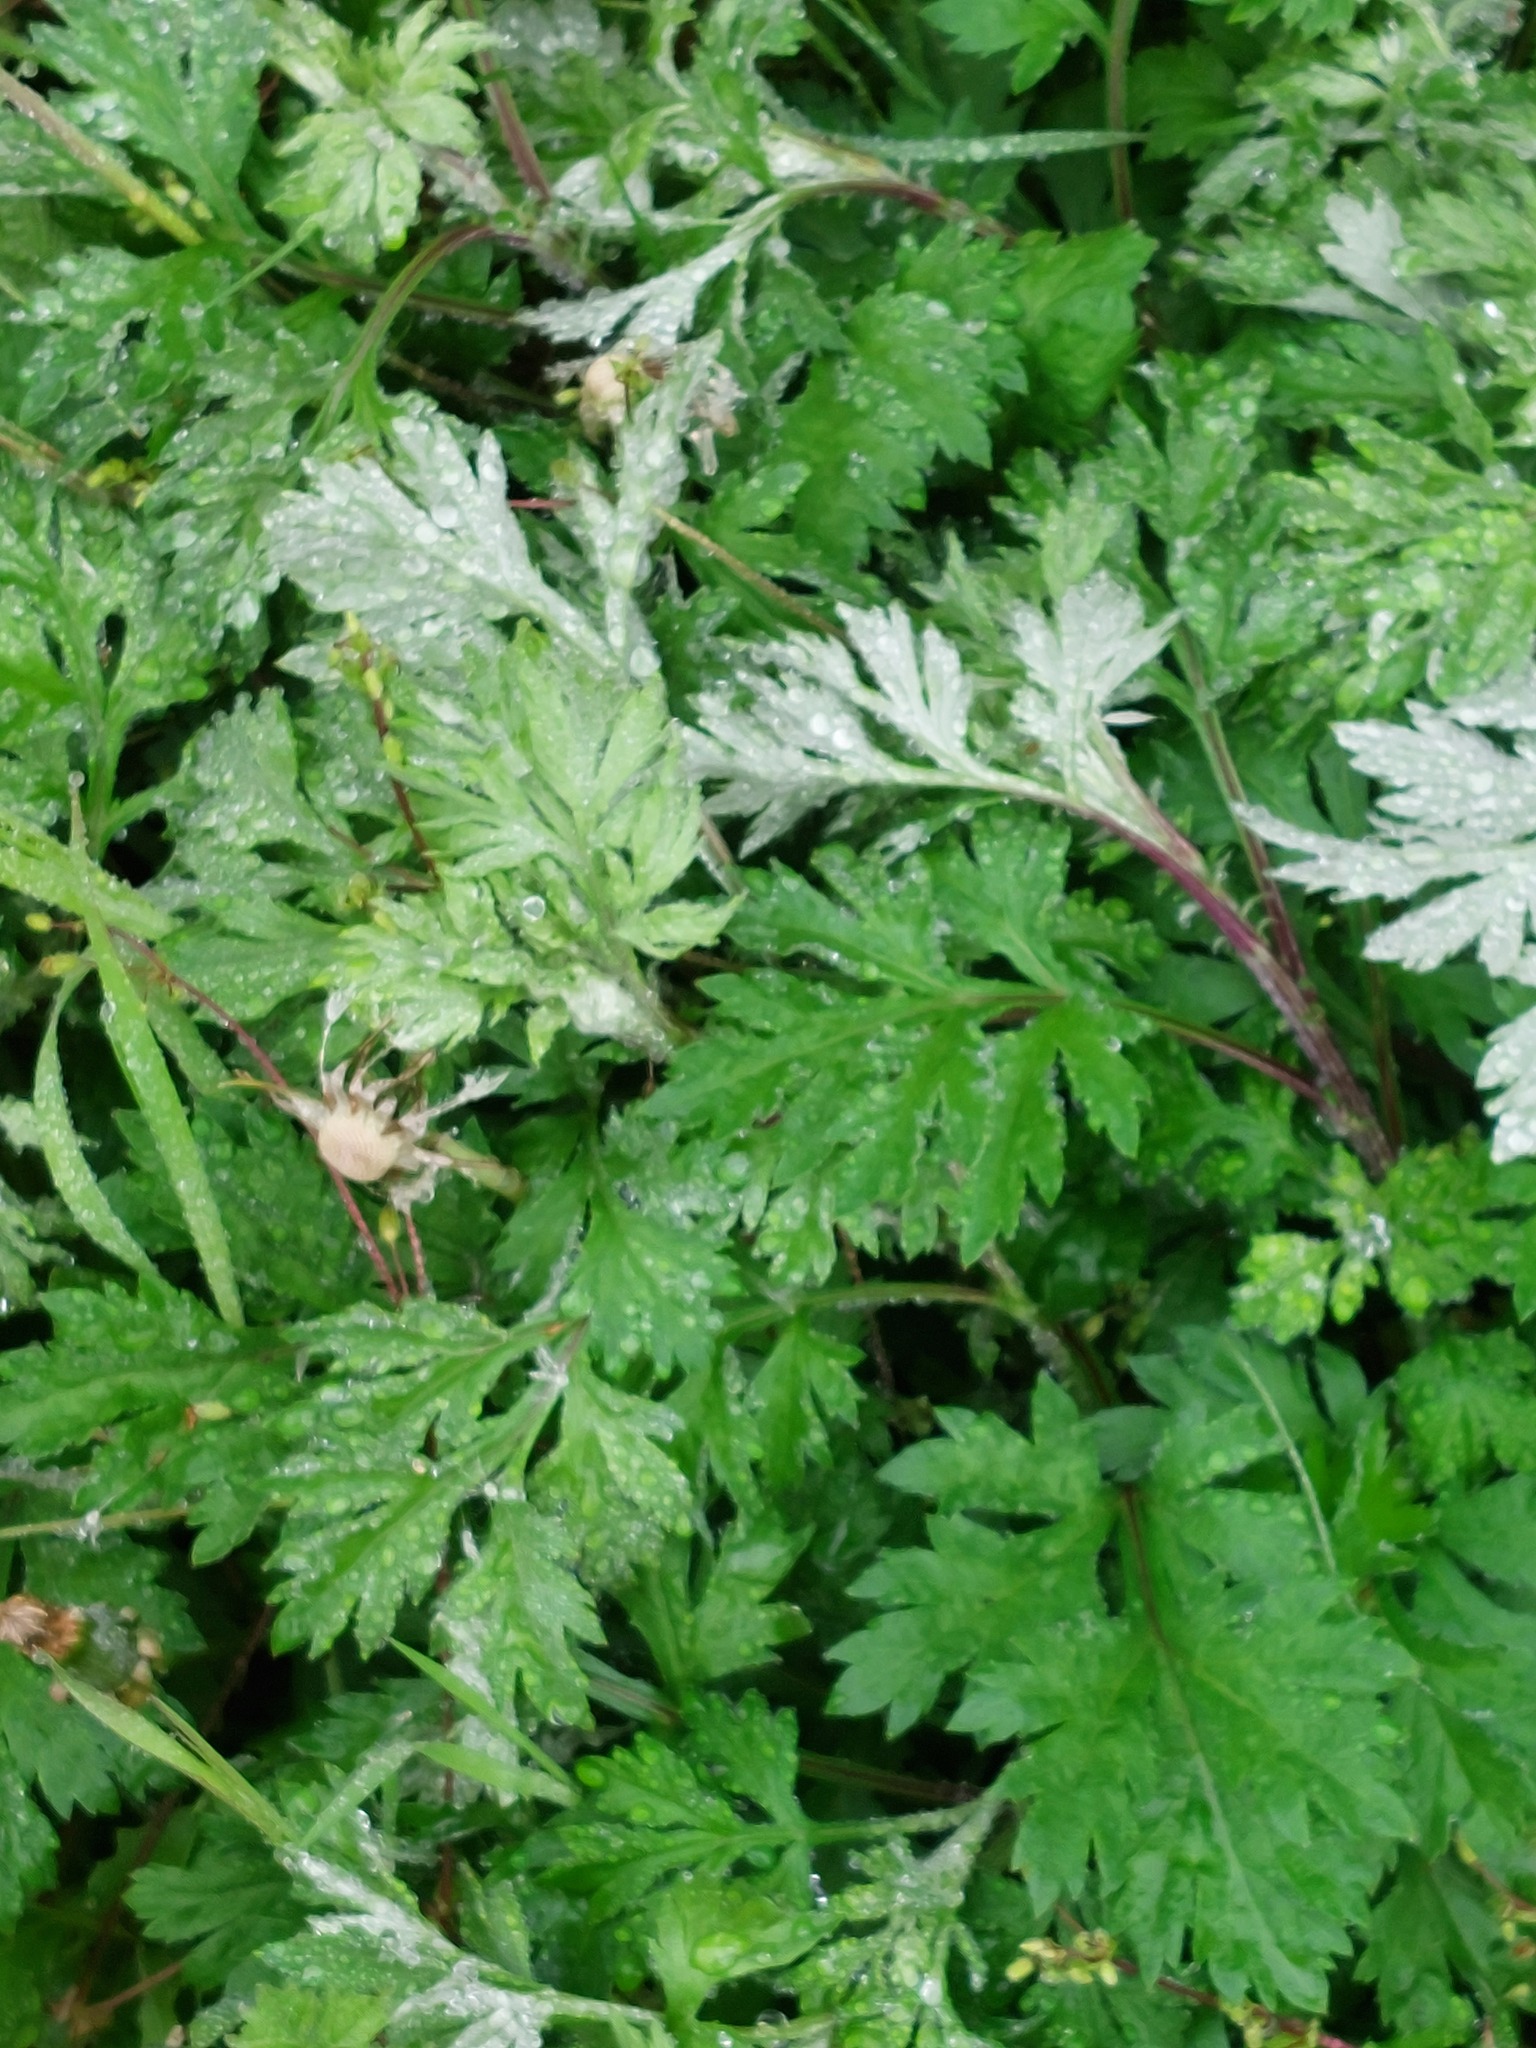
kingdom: Plantae
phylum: Tracheophyta
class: Magnoliopsida
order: Asterales
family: Asteraceae
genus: Artemisia
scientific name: Artemisia vulgaris
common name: Mugwort
